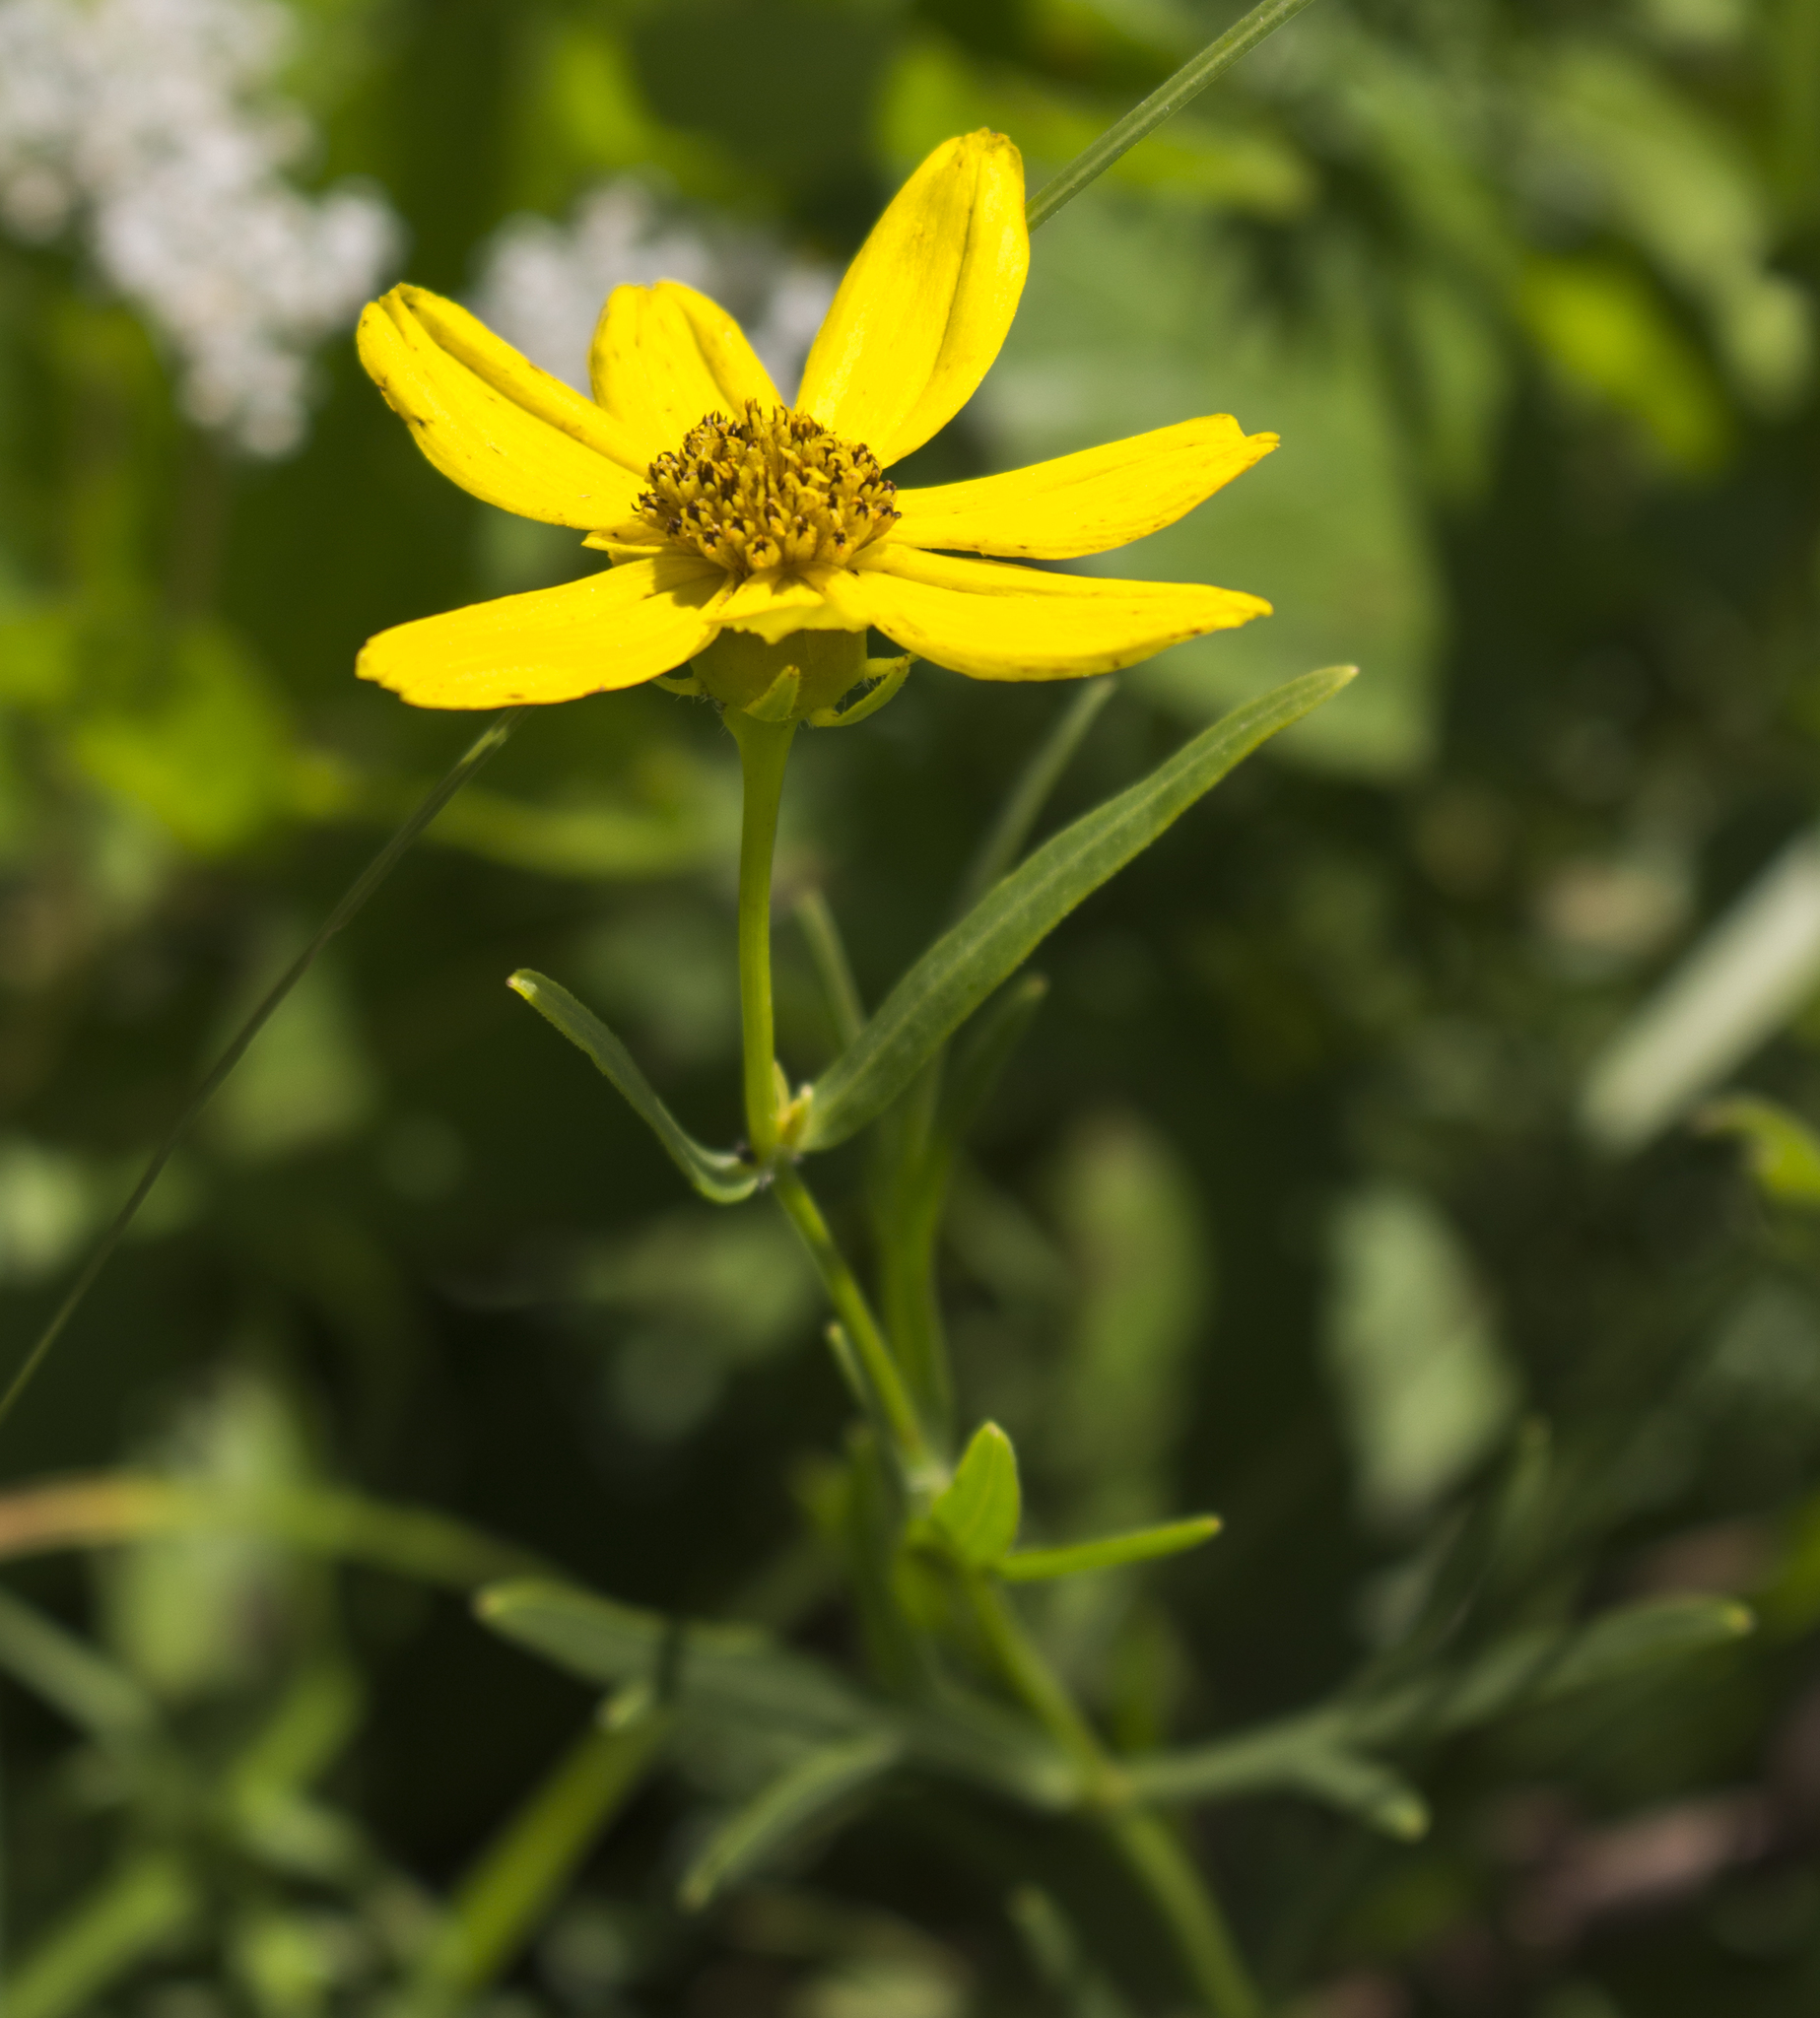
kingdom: Plantae
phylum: Tracheophyta
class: Magnoliopsida
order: Asterales
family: Asteraceae
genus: Coreopsis
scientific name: Coreopsis palmata
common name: Prairie coreopsis
